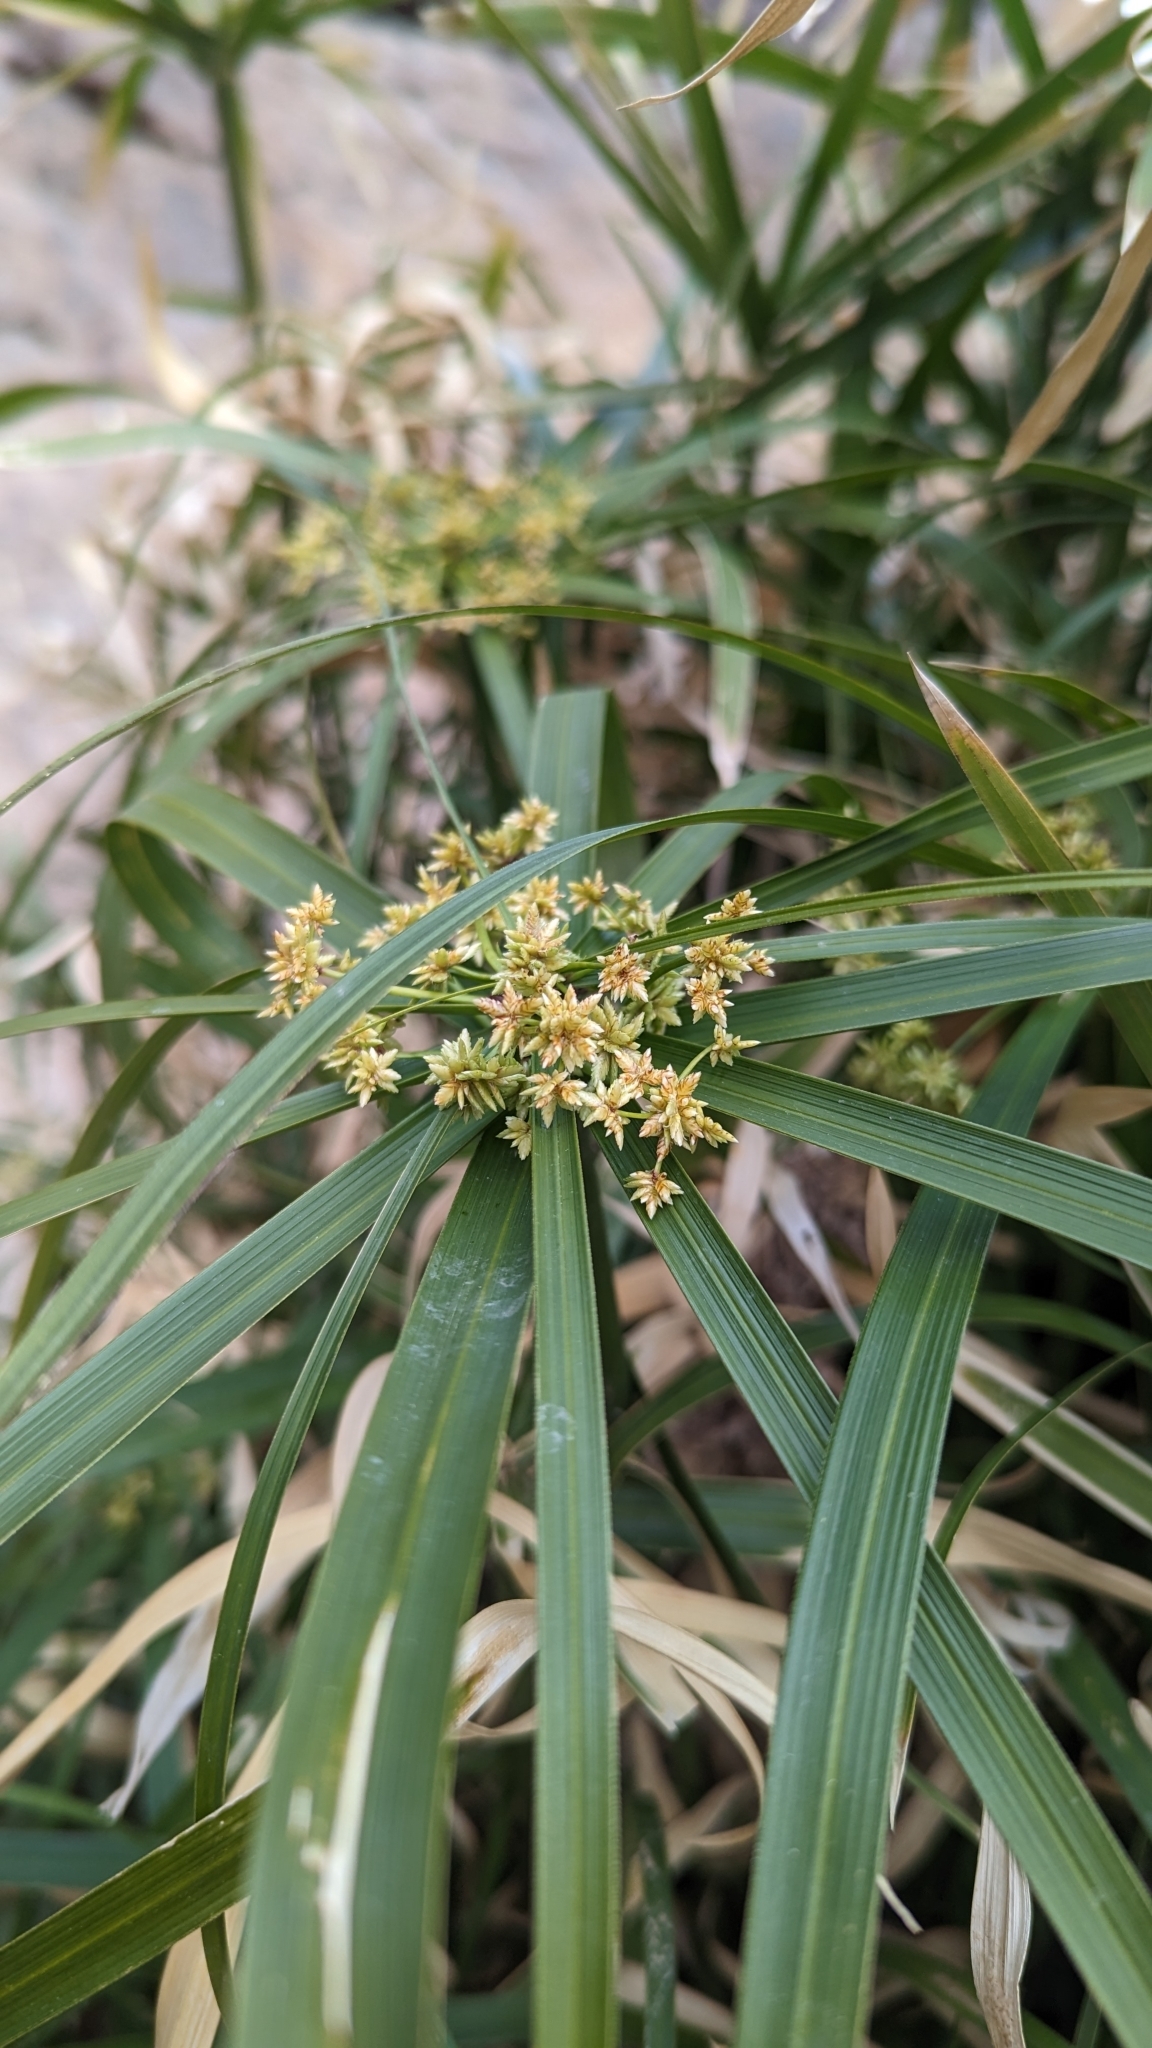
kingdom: Plantae
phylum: Tracheophyta
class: Liliopsida
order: Poales
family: Cyperaceae
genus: Cyperus
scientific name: Cyperus alternifolius
